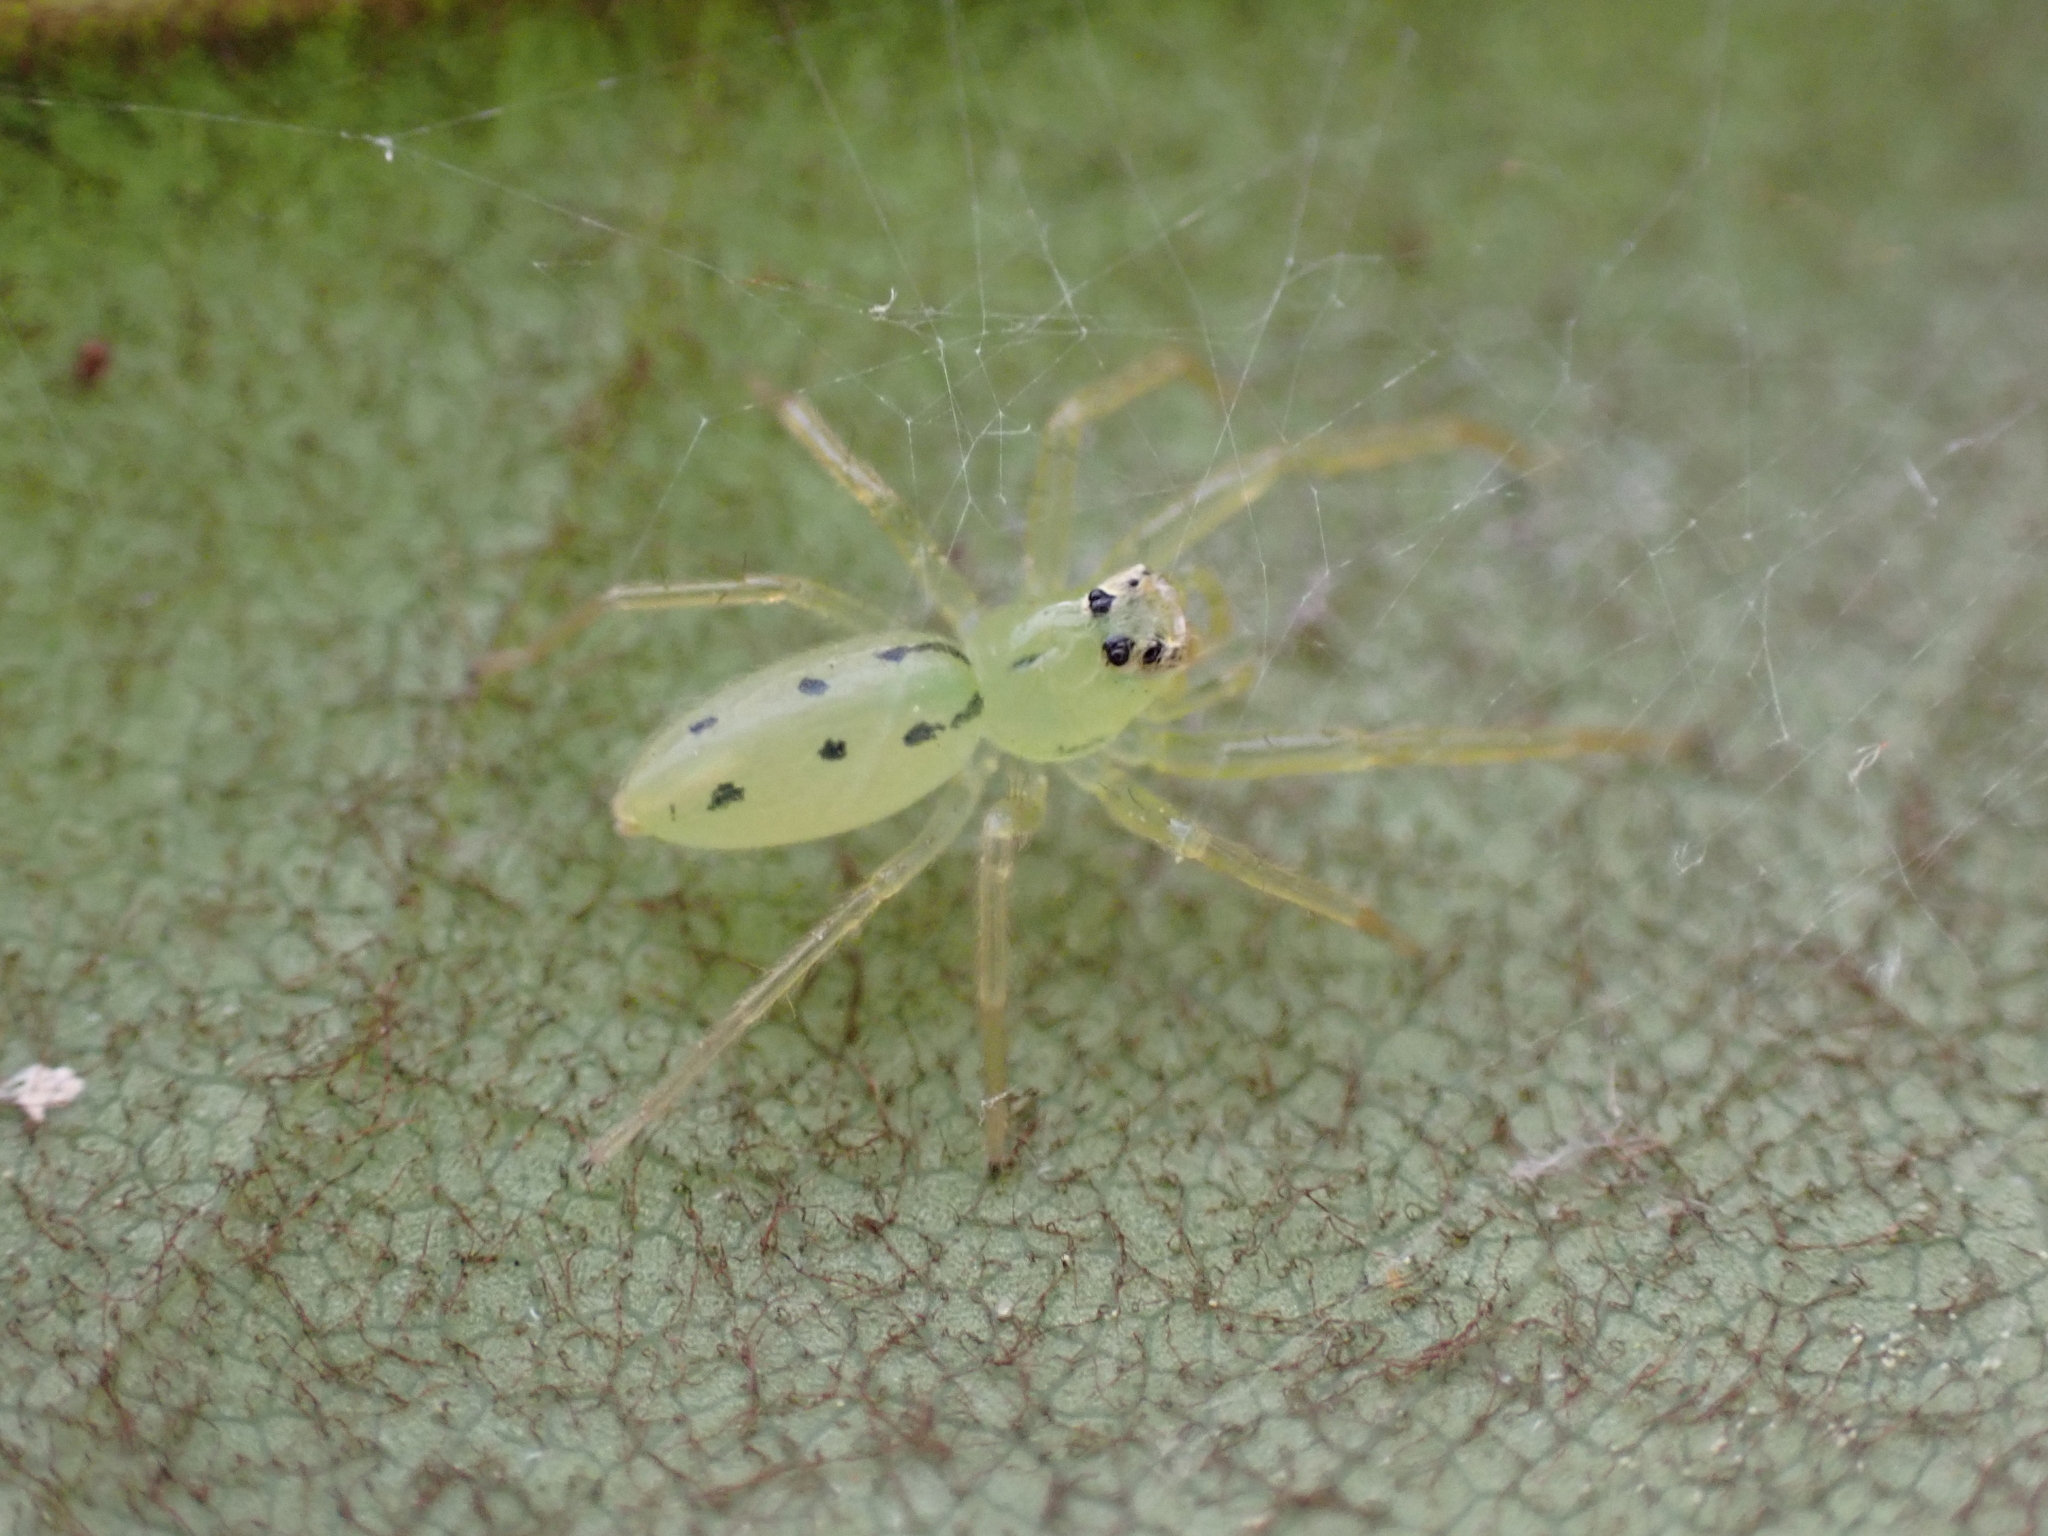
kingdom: Animalia
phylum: Arthropoda
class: Arachnida
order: Araneae
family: Salticidae
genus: Lyssomanes
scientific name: Lyssomanes viridis
